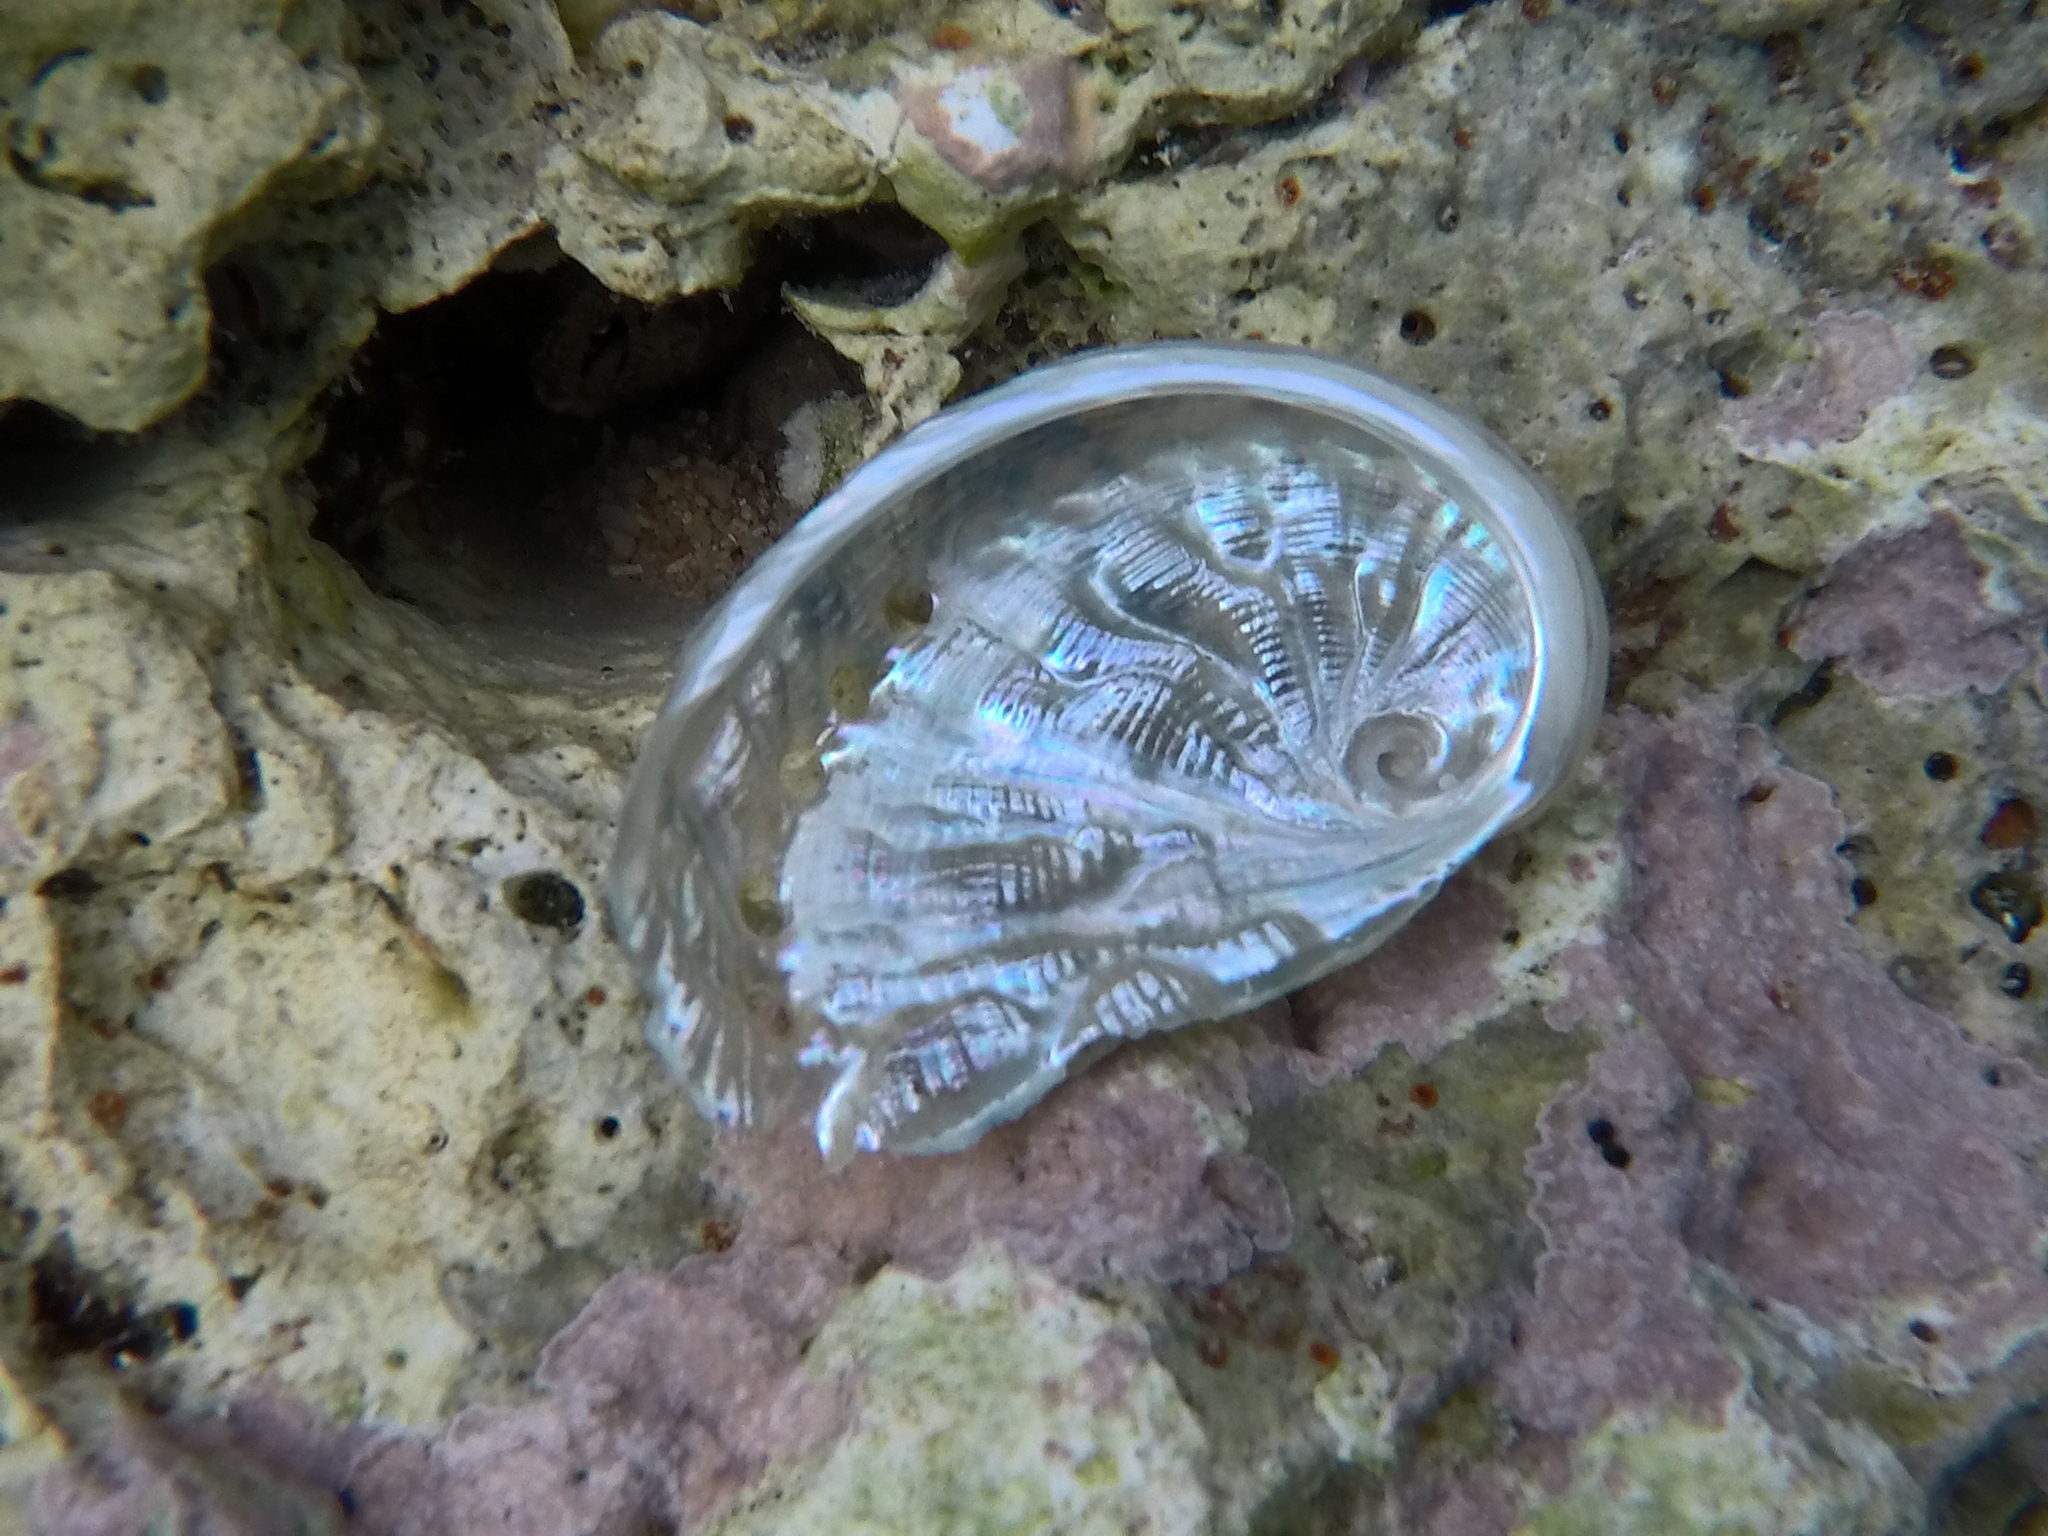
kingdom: Animalia
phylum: Mollusca
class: Gastropoda
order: Lepetellida
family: Haliotidae
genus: Haliotis
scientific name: Haliotis tuberculata
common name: Green ormer
